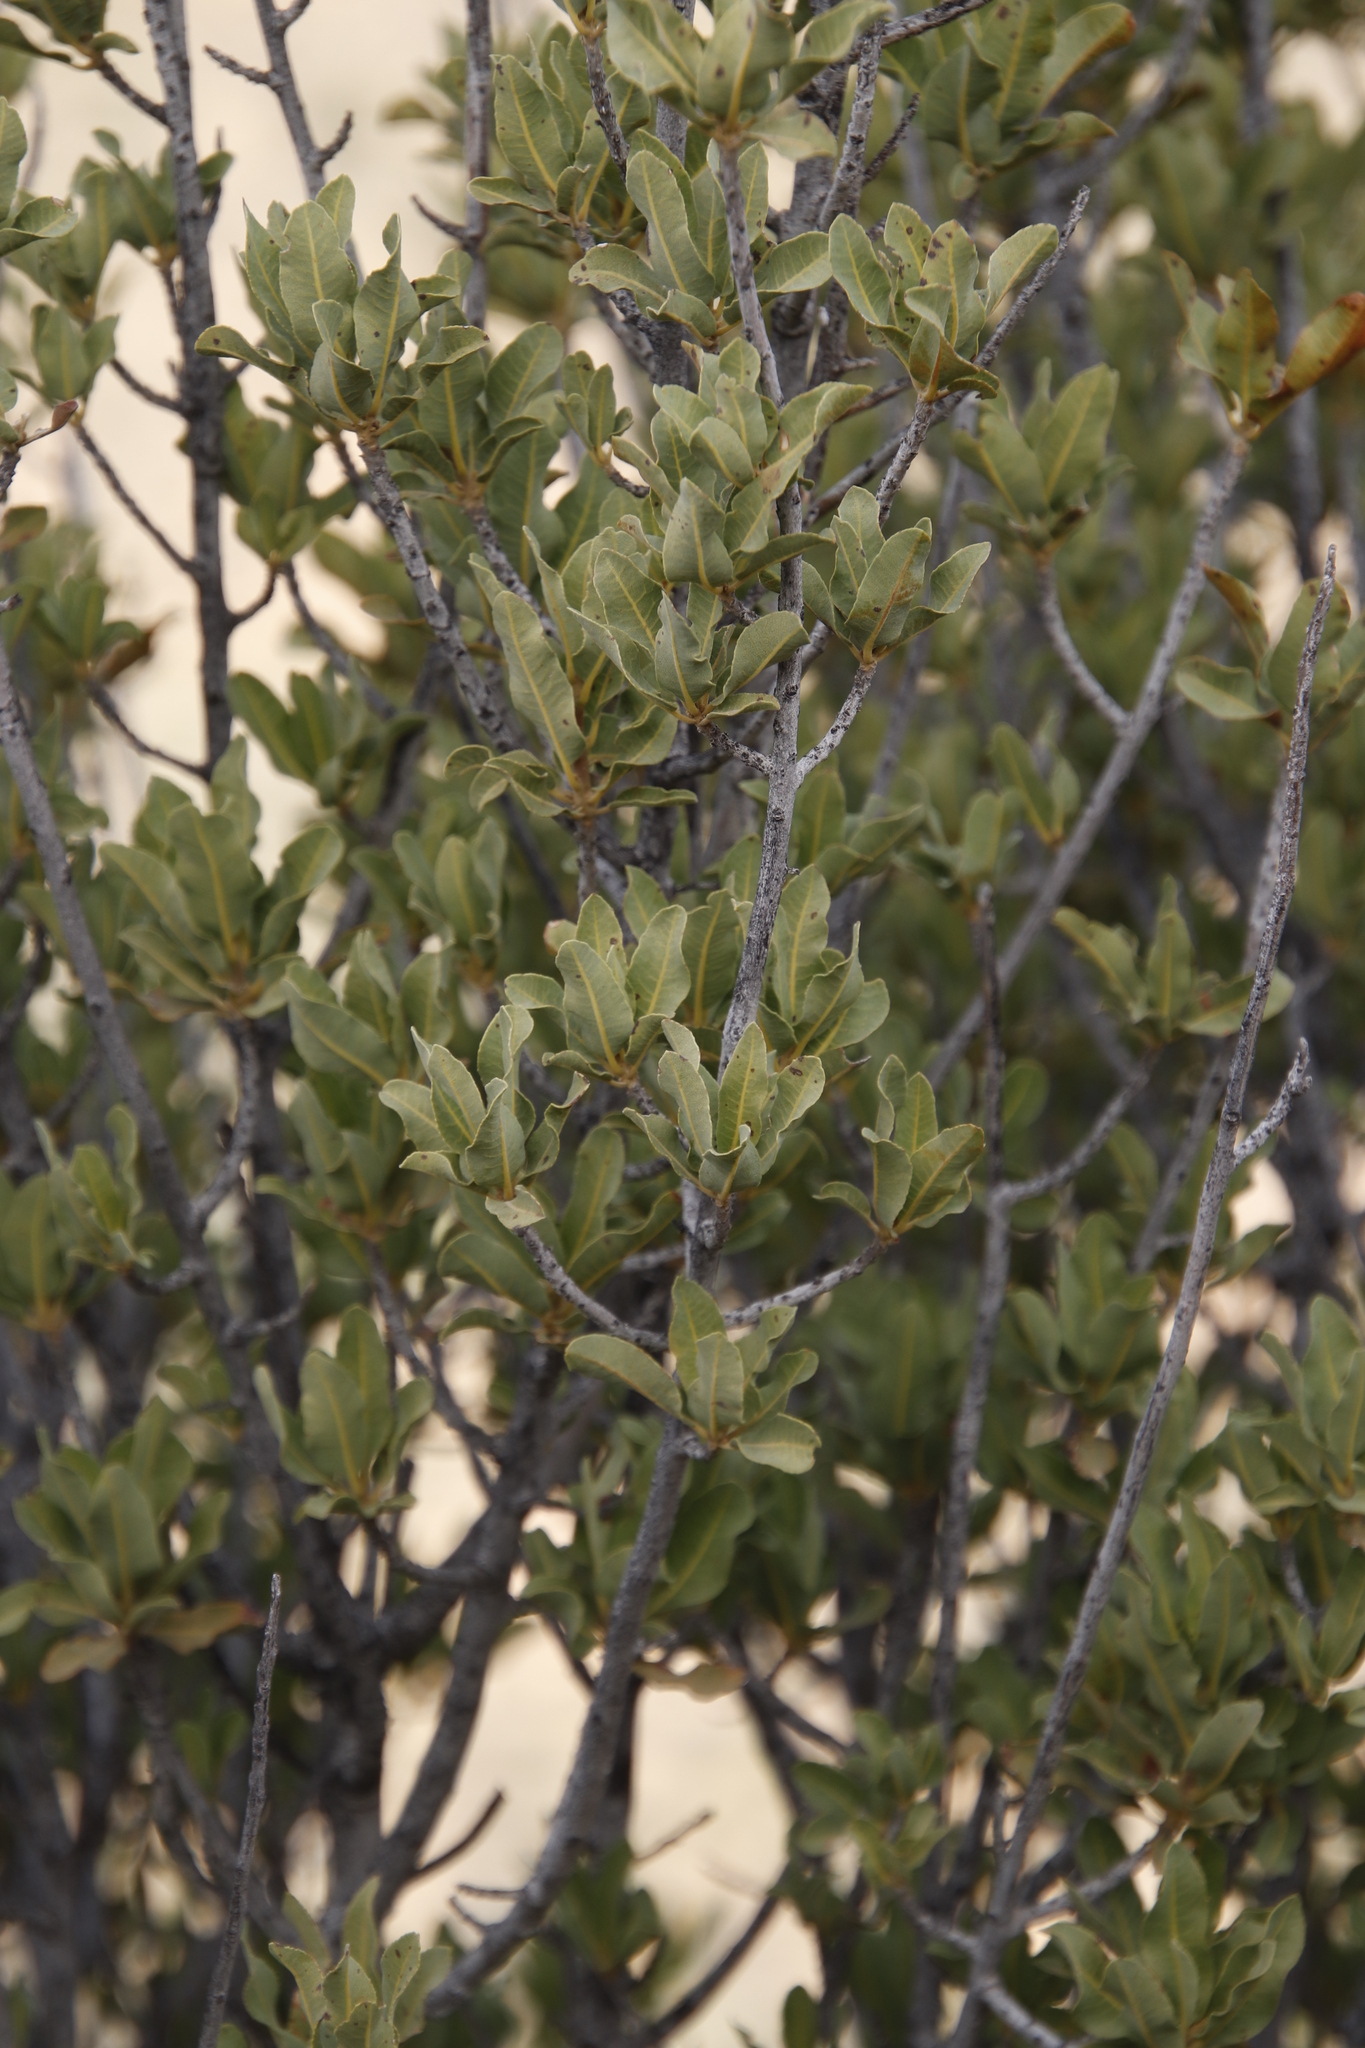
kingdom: Plantae
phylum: Tracheophyta
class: Magnoliopsida
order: Sapindales
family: Sapindaceae
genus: Pappea
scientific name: Pappea capensis
